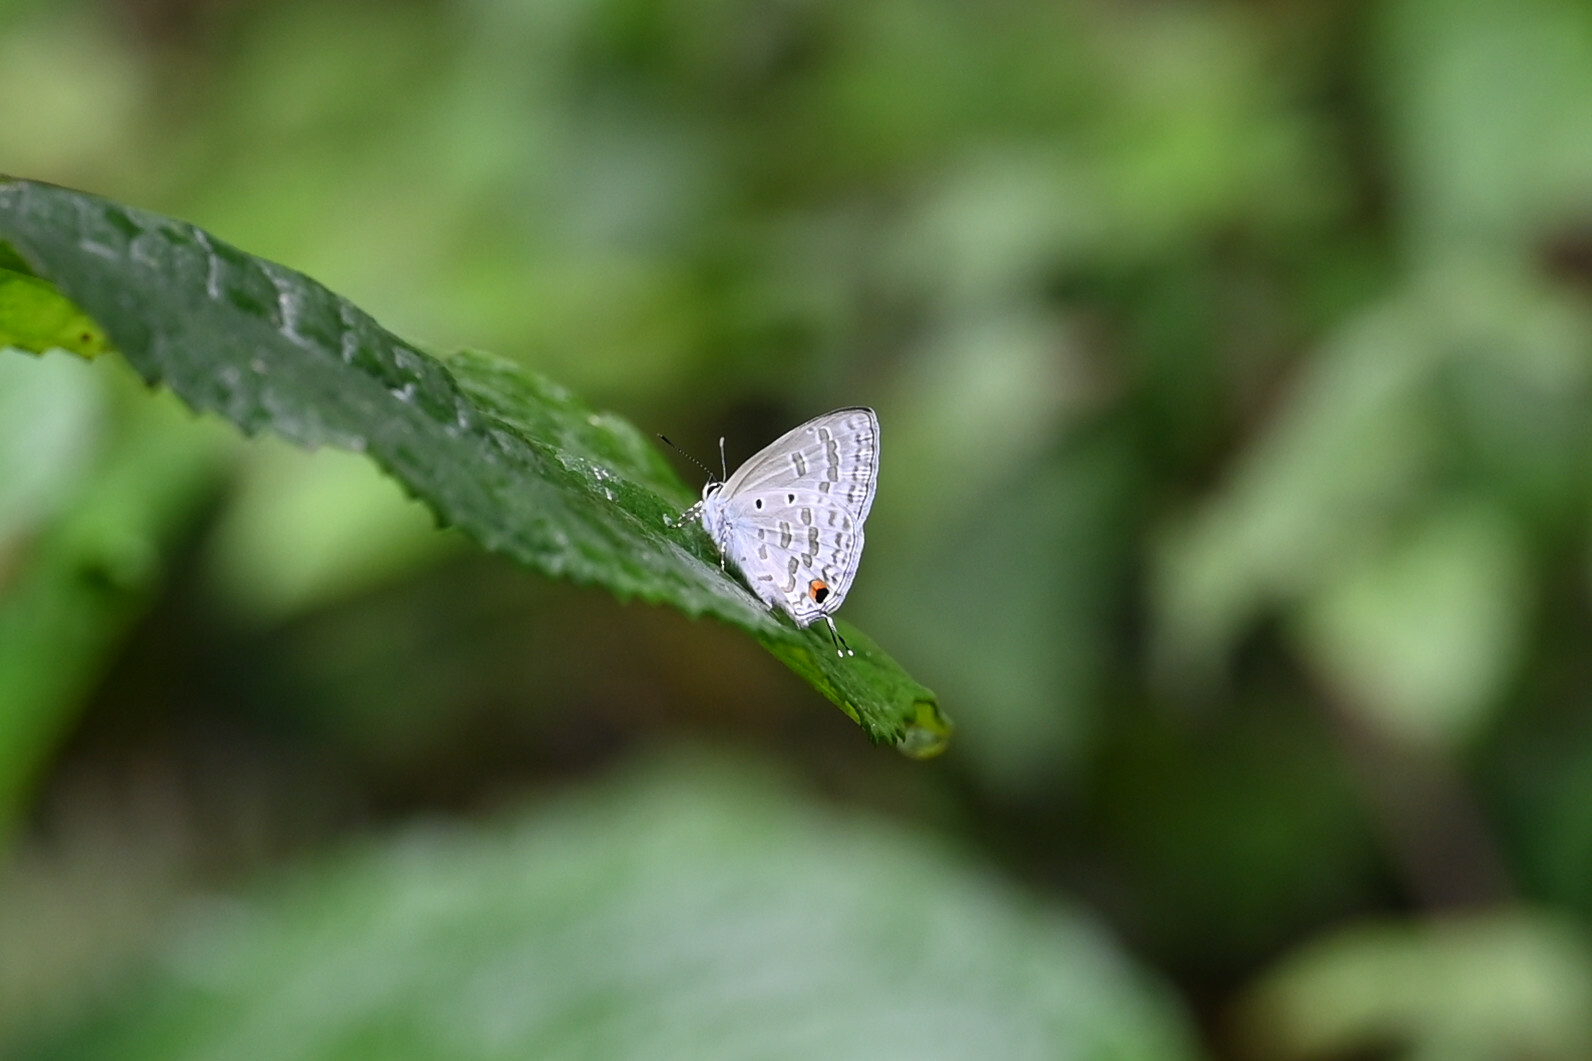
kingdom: Animalia
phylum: Arthropoda
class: Insecta
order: Lepidoptera
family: Lycaenidae
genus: Catochrysops
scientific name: Catochrysops panormus
